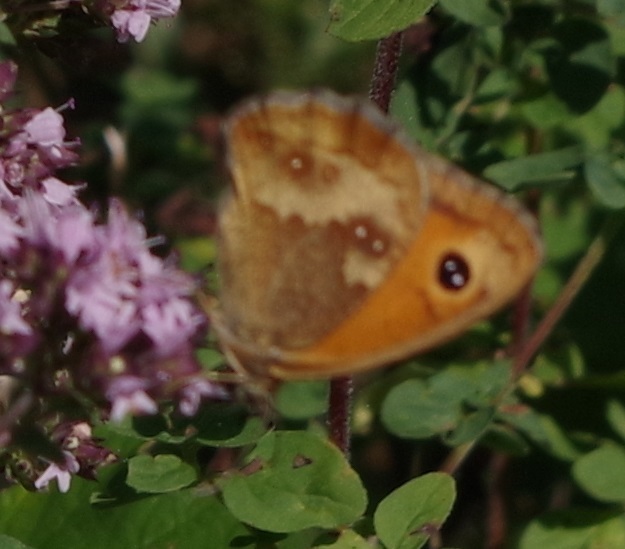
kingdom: Animalia
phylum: Arthropoda
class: Insecta
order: Lepidoptera
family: Nymphalidae
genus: Pyronia
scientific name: Pyronia tithonus
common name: Gatekeeper
